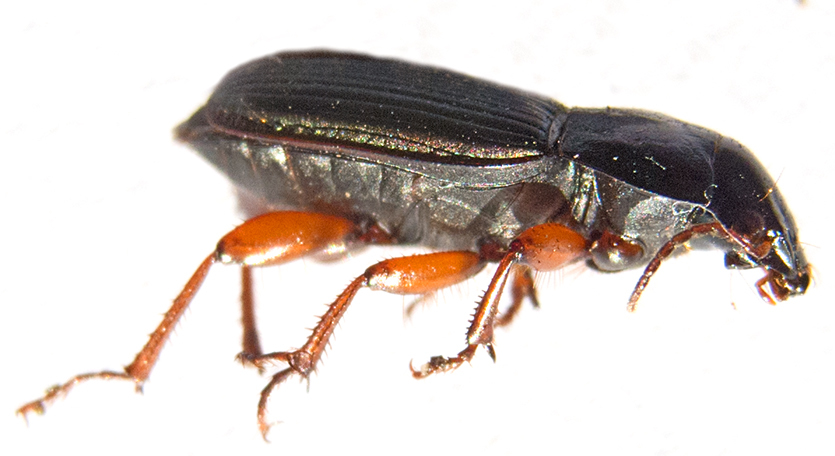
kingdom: Animalia
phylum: Arthropoda
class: Insecta
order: Coleoptera
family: Carabidae
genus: Harpalus
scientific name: Harpalus affinis
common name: Polychrome harp ground beetle
